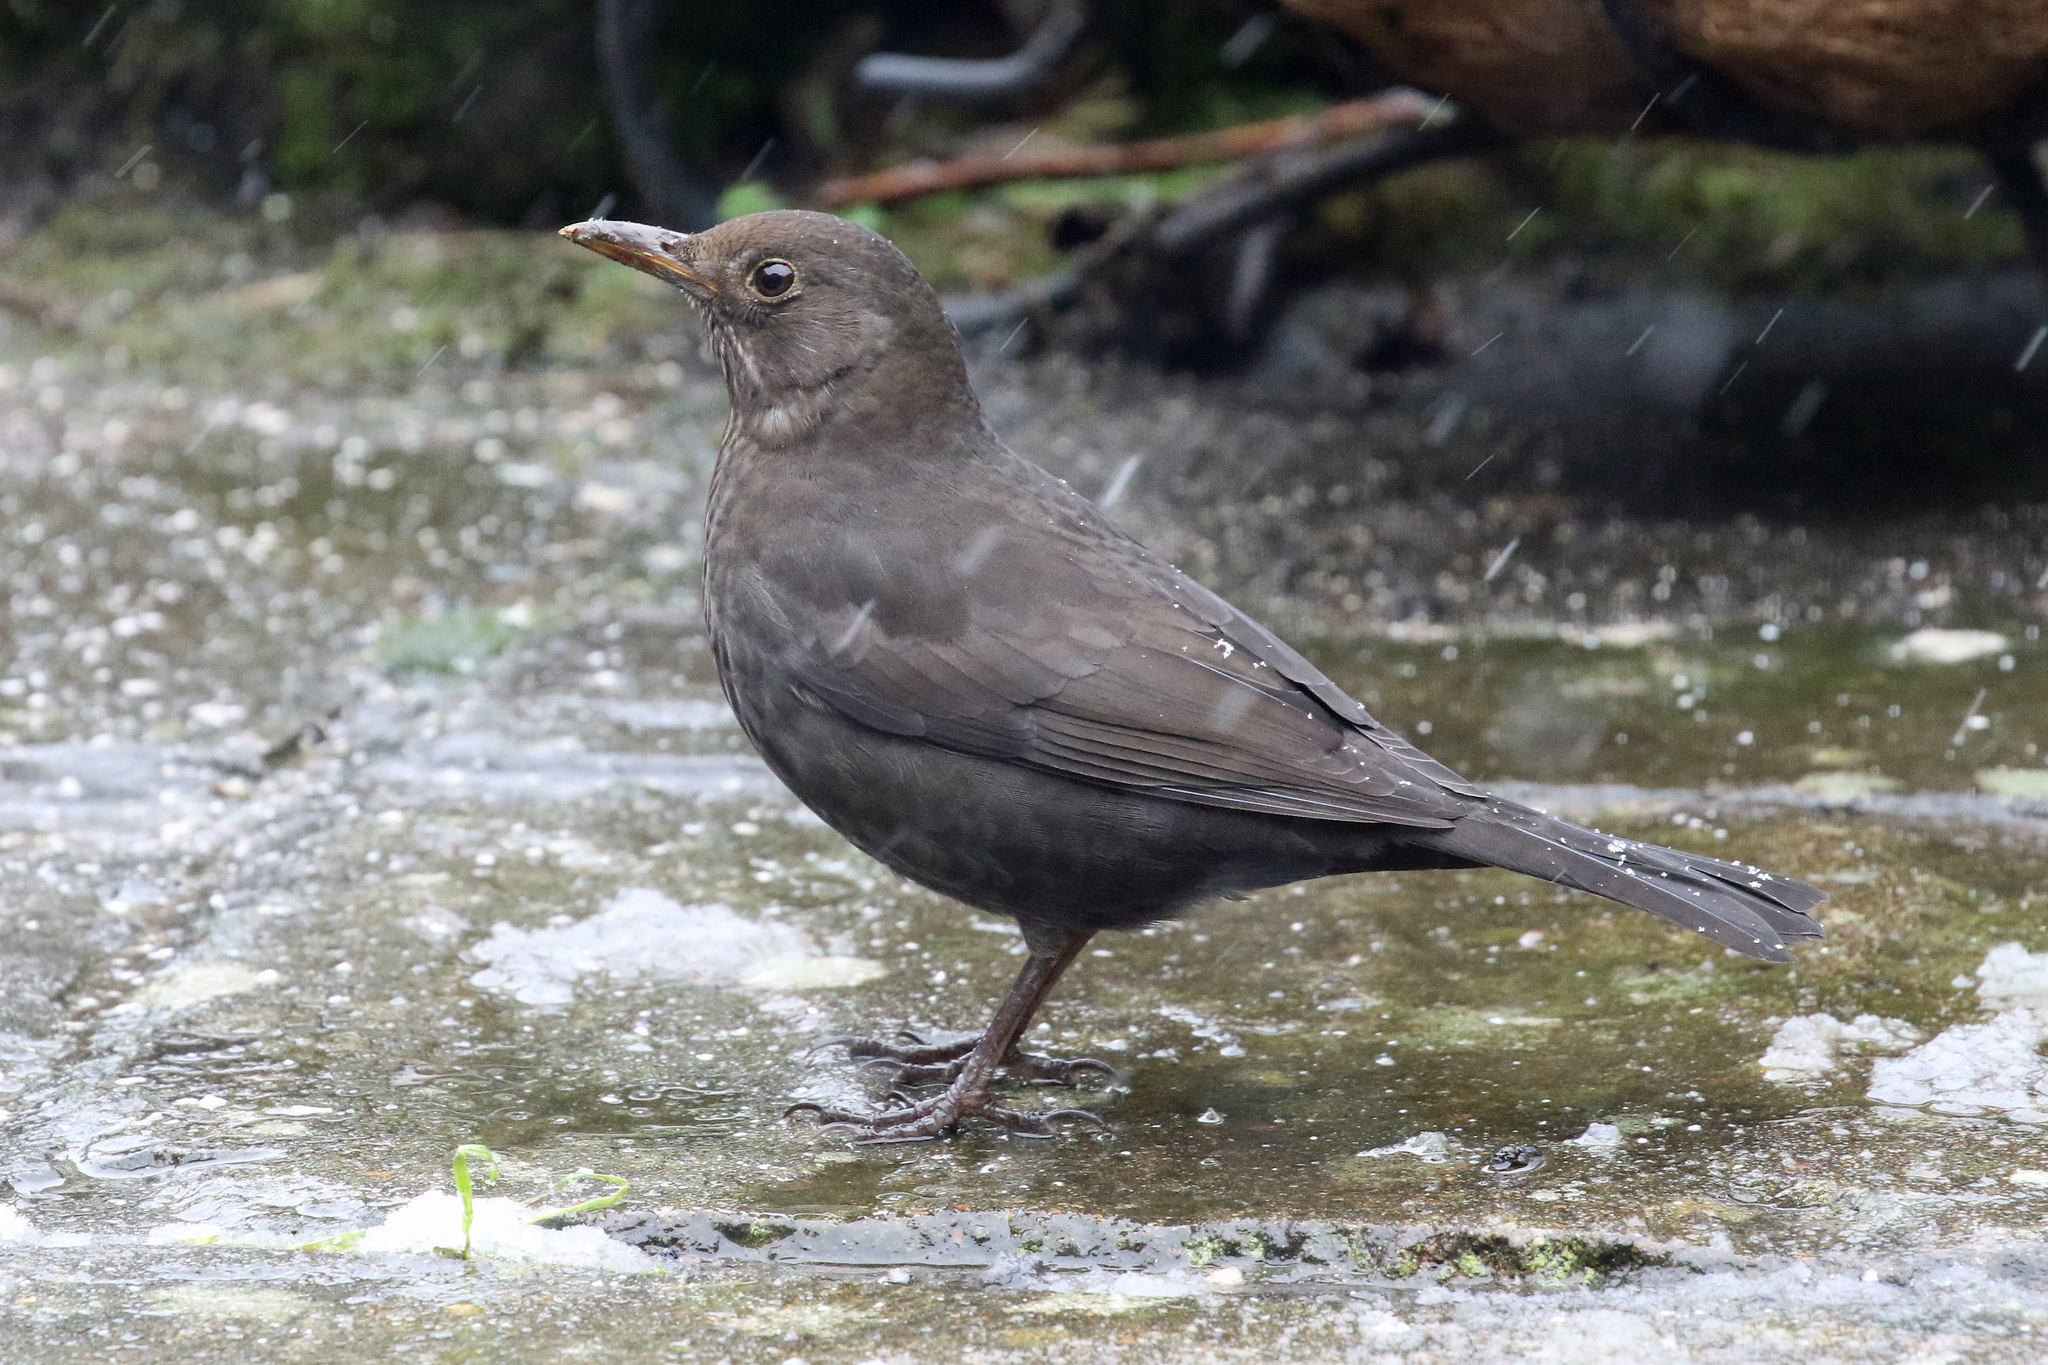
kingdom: Animalia
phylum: Chordata
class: Aves
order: Passeriformes
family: Turdidae
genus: Turdus
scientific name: Turdus merula
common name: Common blackbird
